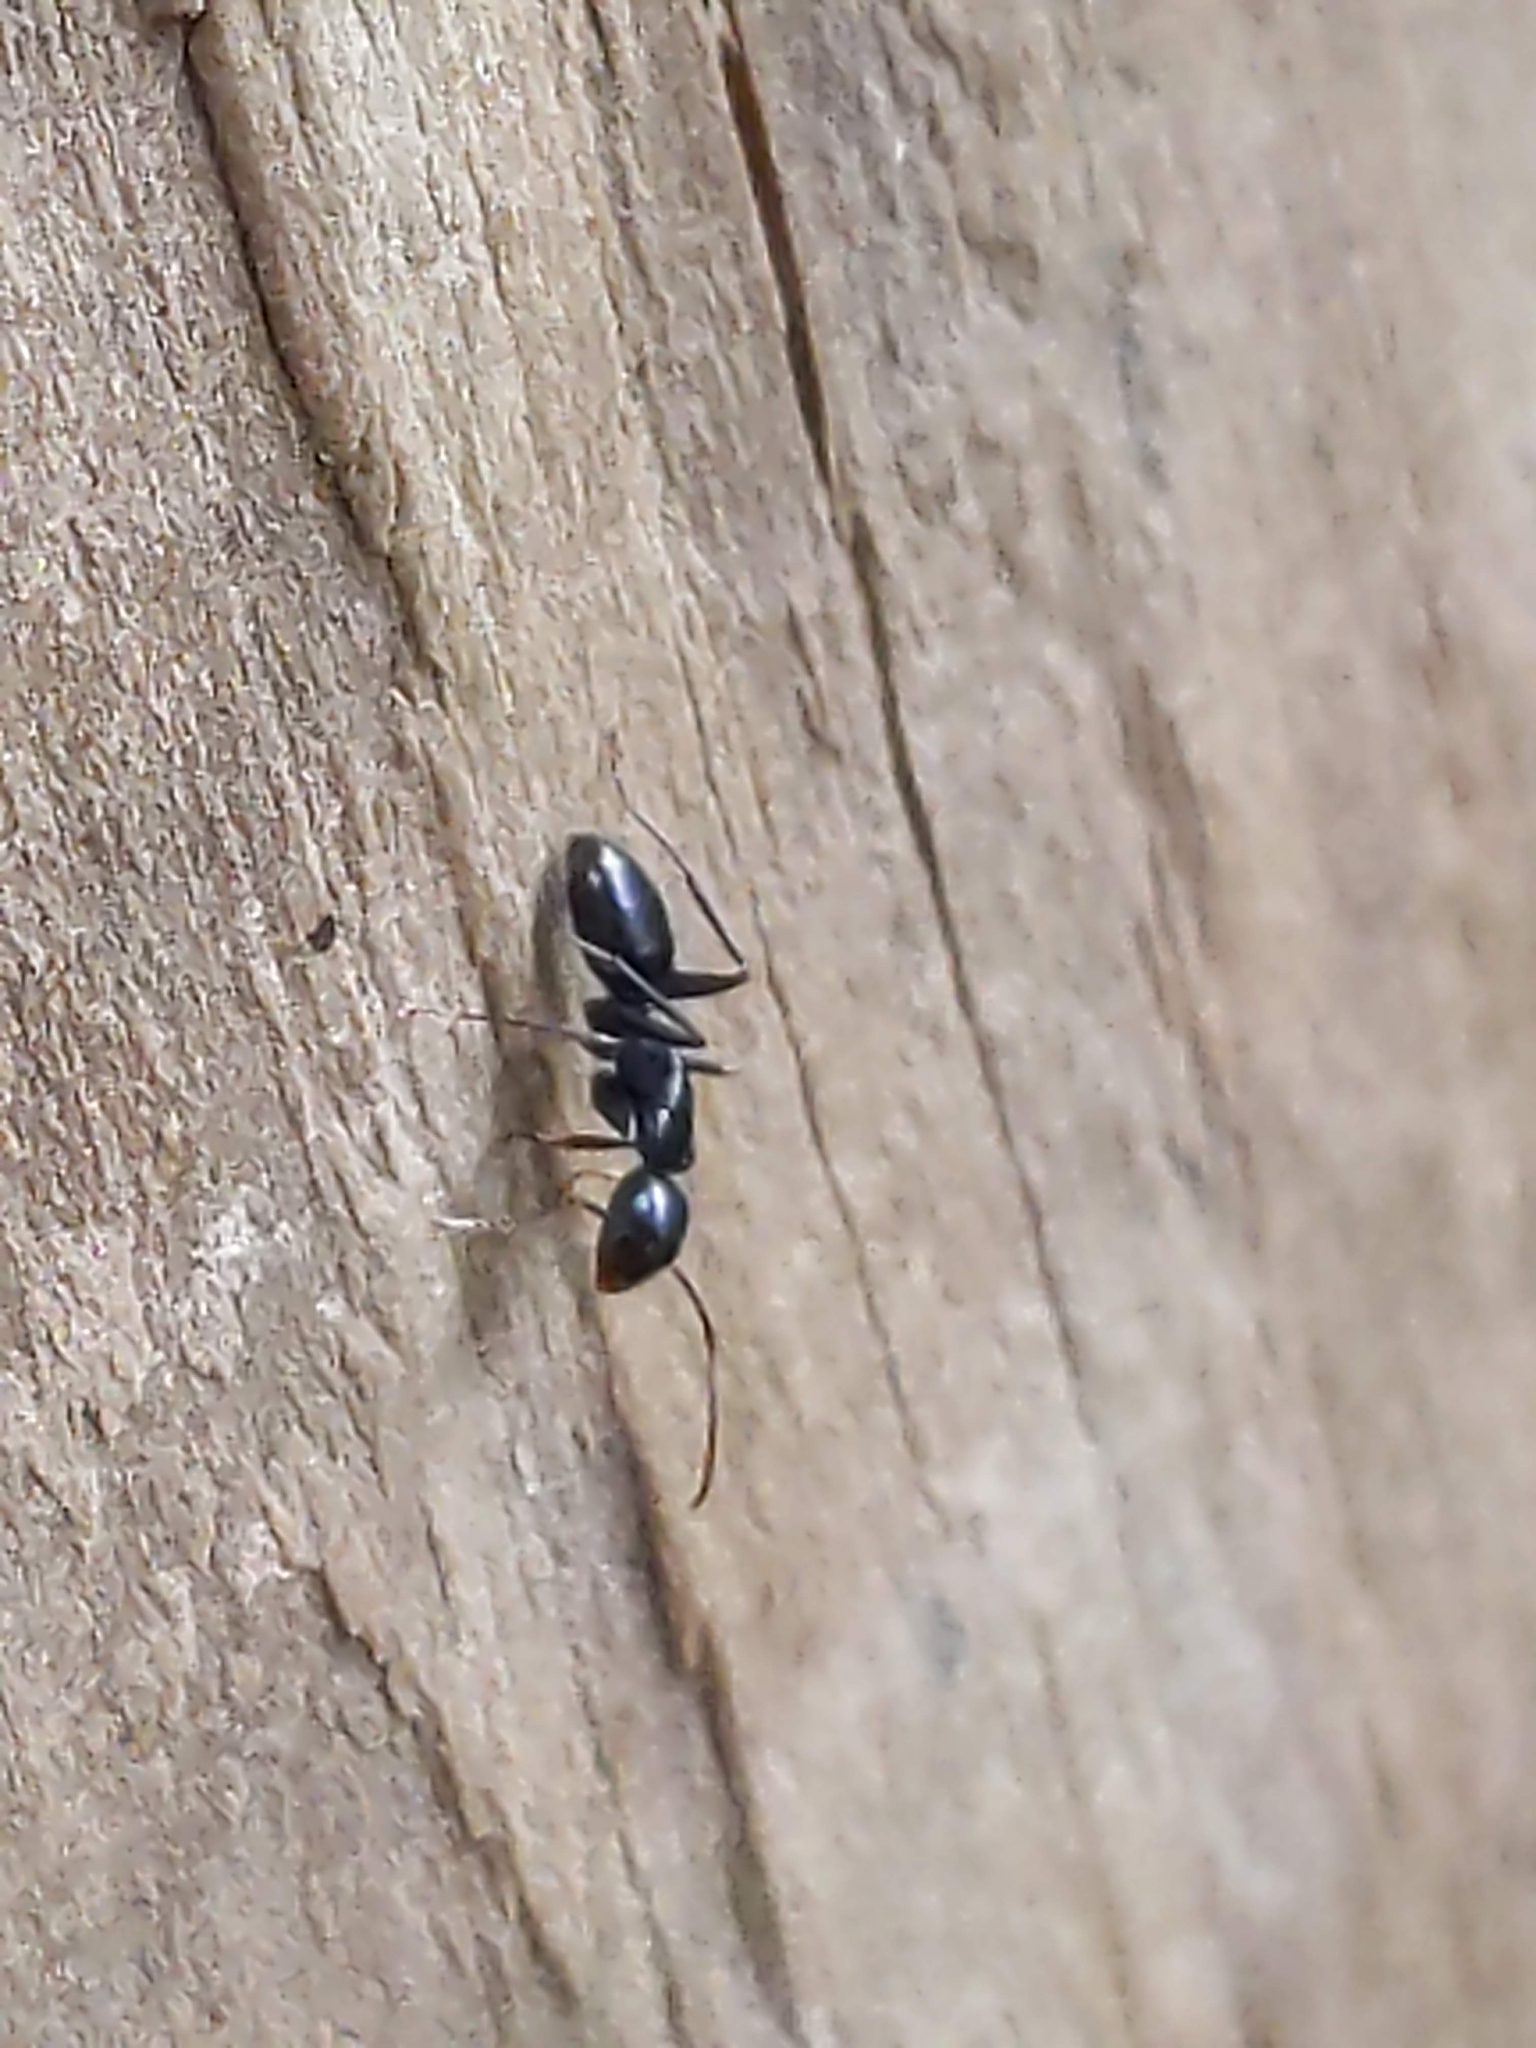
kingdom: Animalia
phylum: Arthropoda
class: Insecta
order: Hymenoptera
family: Formicidae
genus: Camponotus
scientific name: Camponotus
